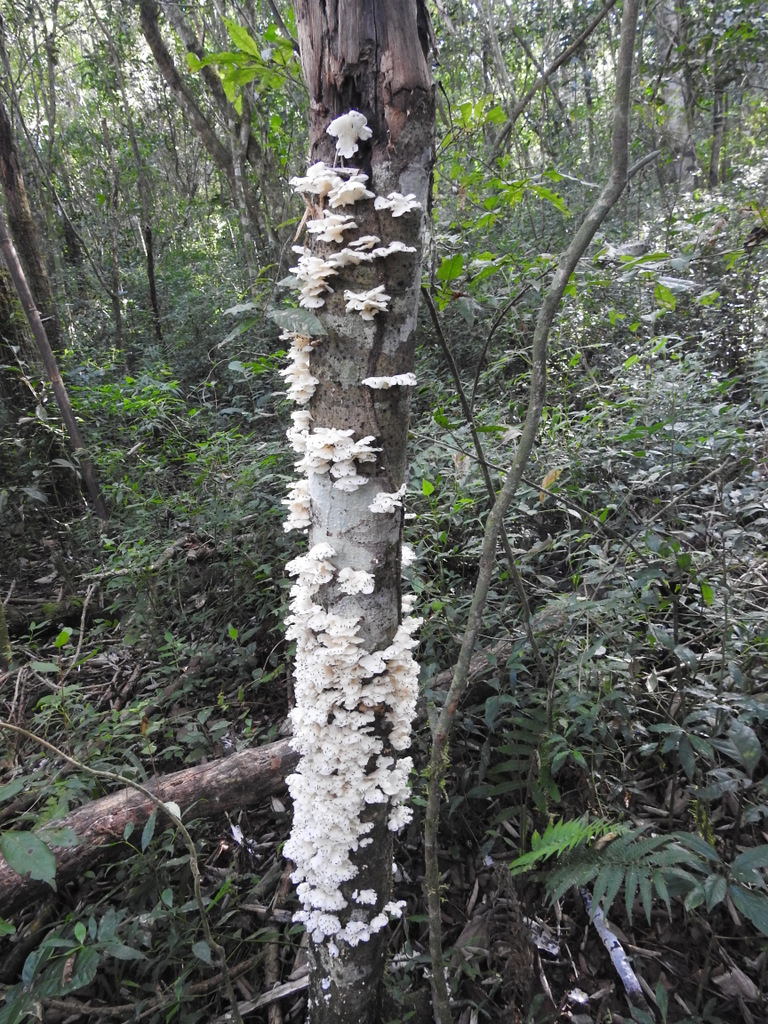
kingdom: Fungi
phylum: Basidiomycota
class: Agaricomycetes
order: Agaricales
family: Pleurotaceae
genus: Pleurotus
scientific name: Pleurotus pulmonarius
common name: Pale oyster
